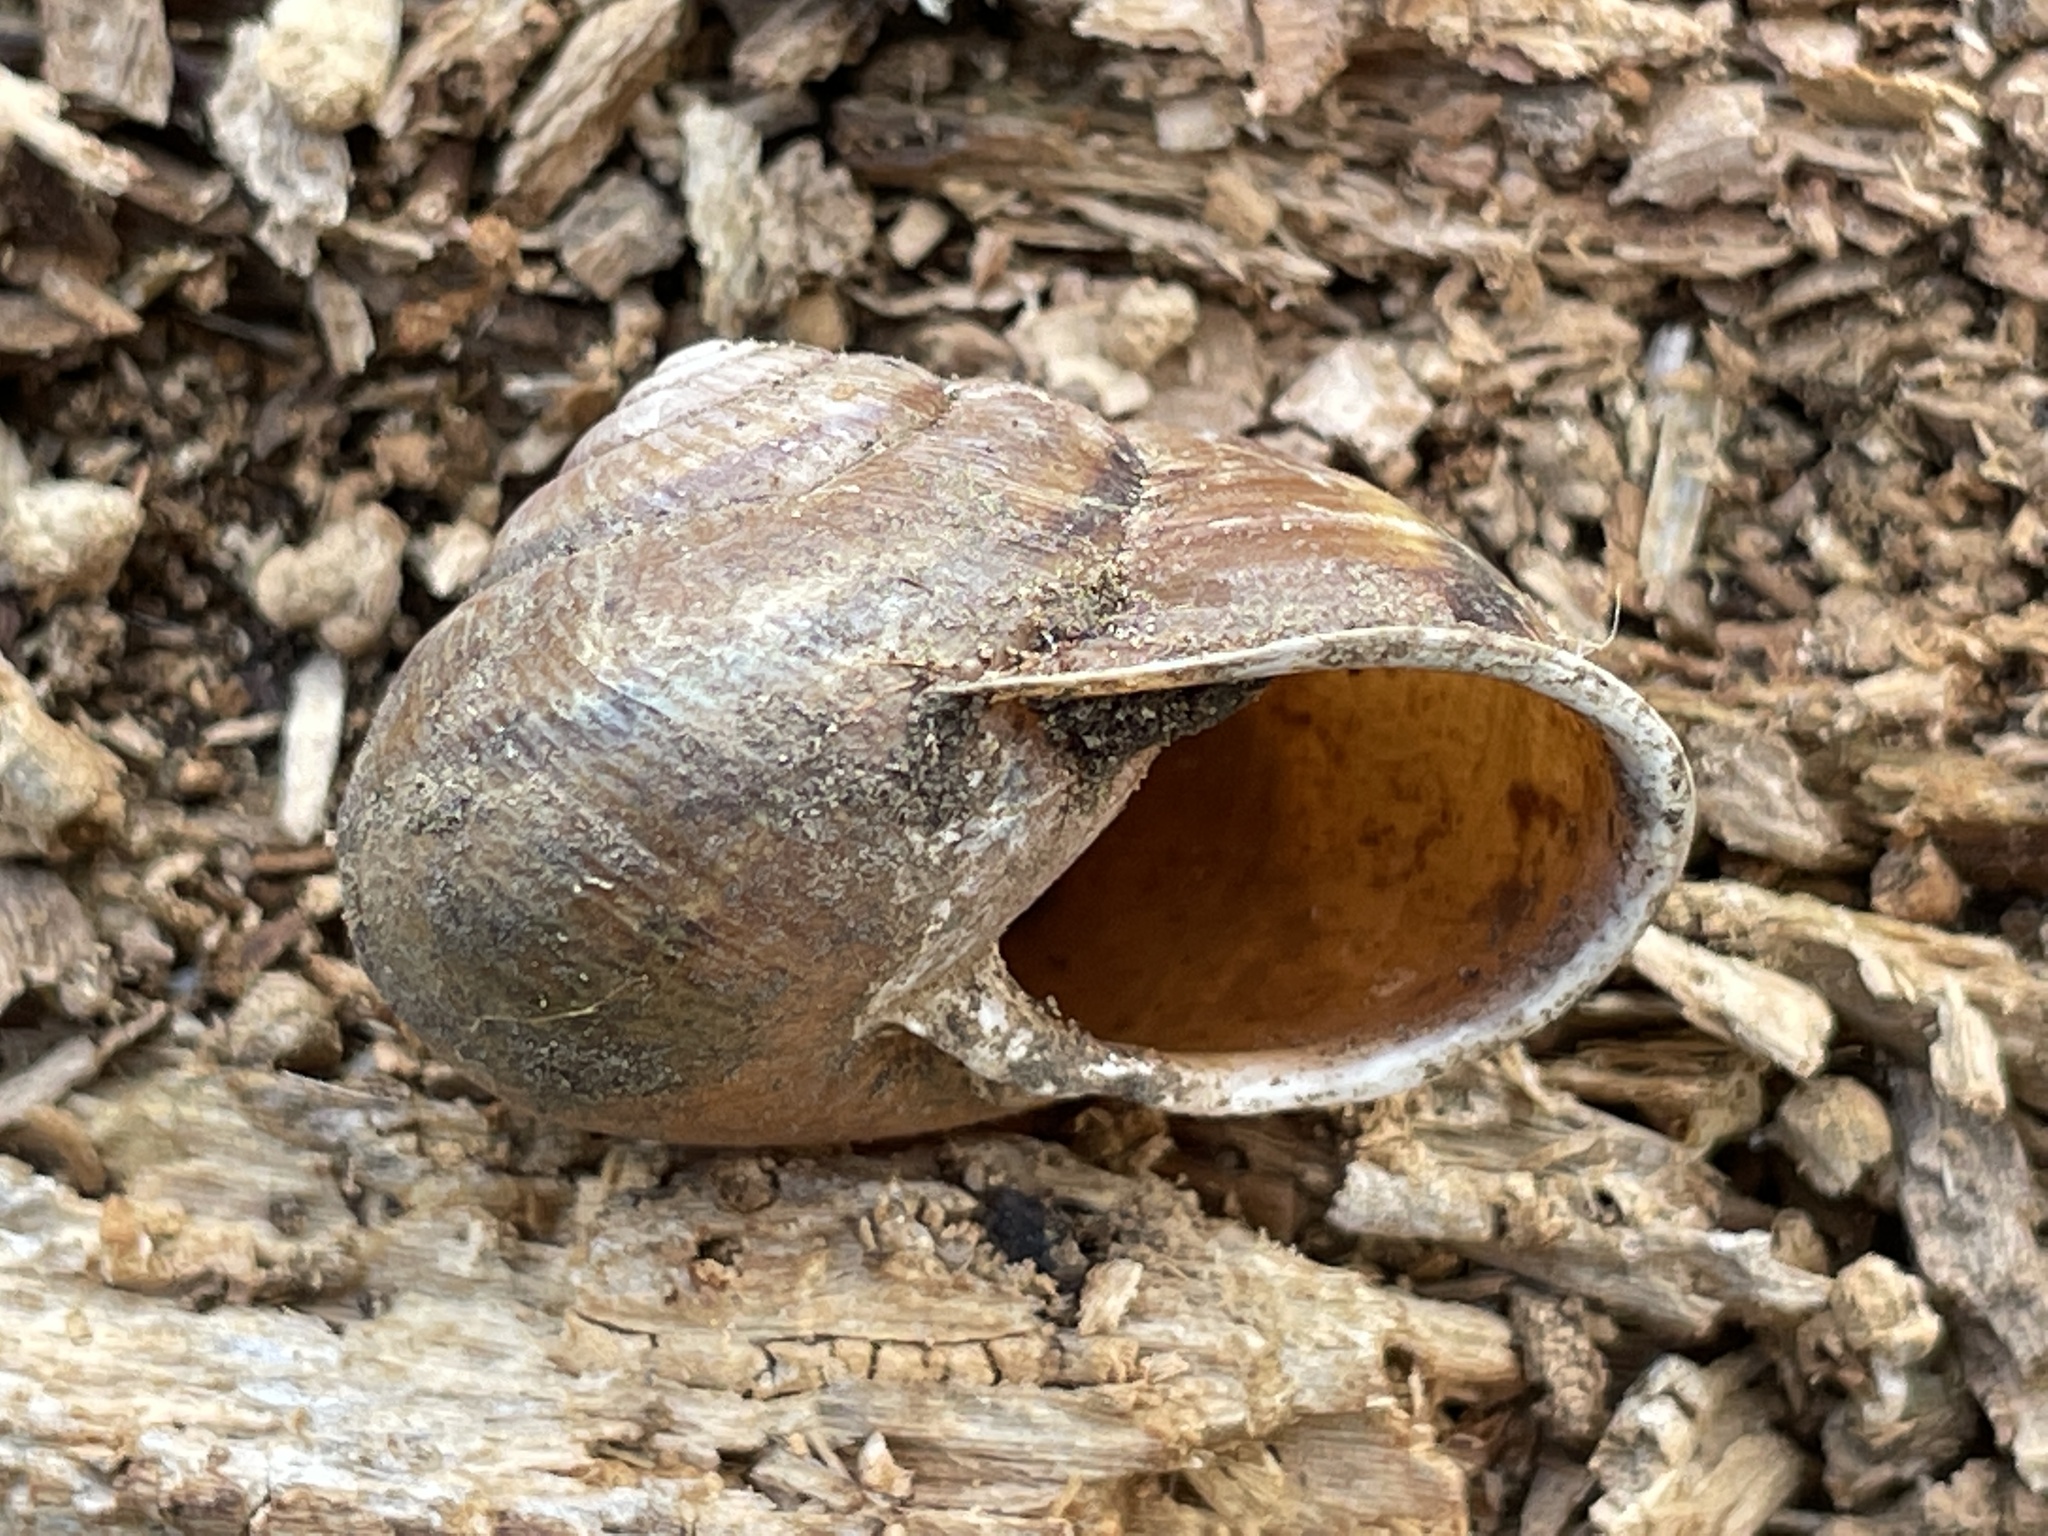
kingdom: Animalia
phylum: Mollusca
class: Gastropoda
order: Stylommatophora
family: Xanthonychidae
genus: Helminthoglypta
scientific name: Helminthoglypta tudiculata
